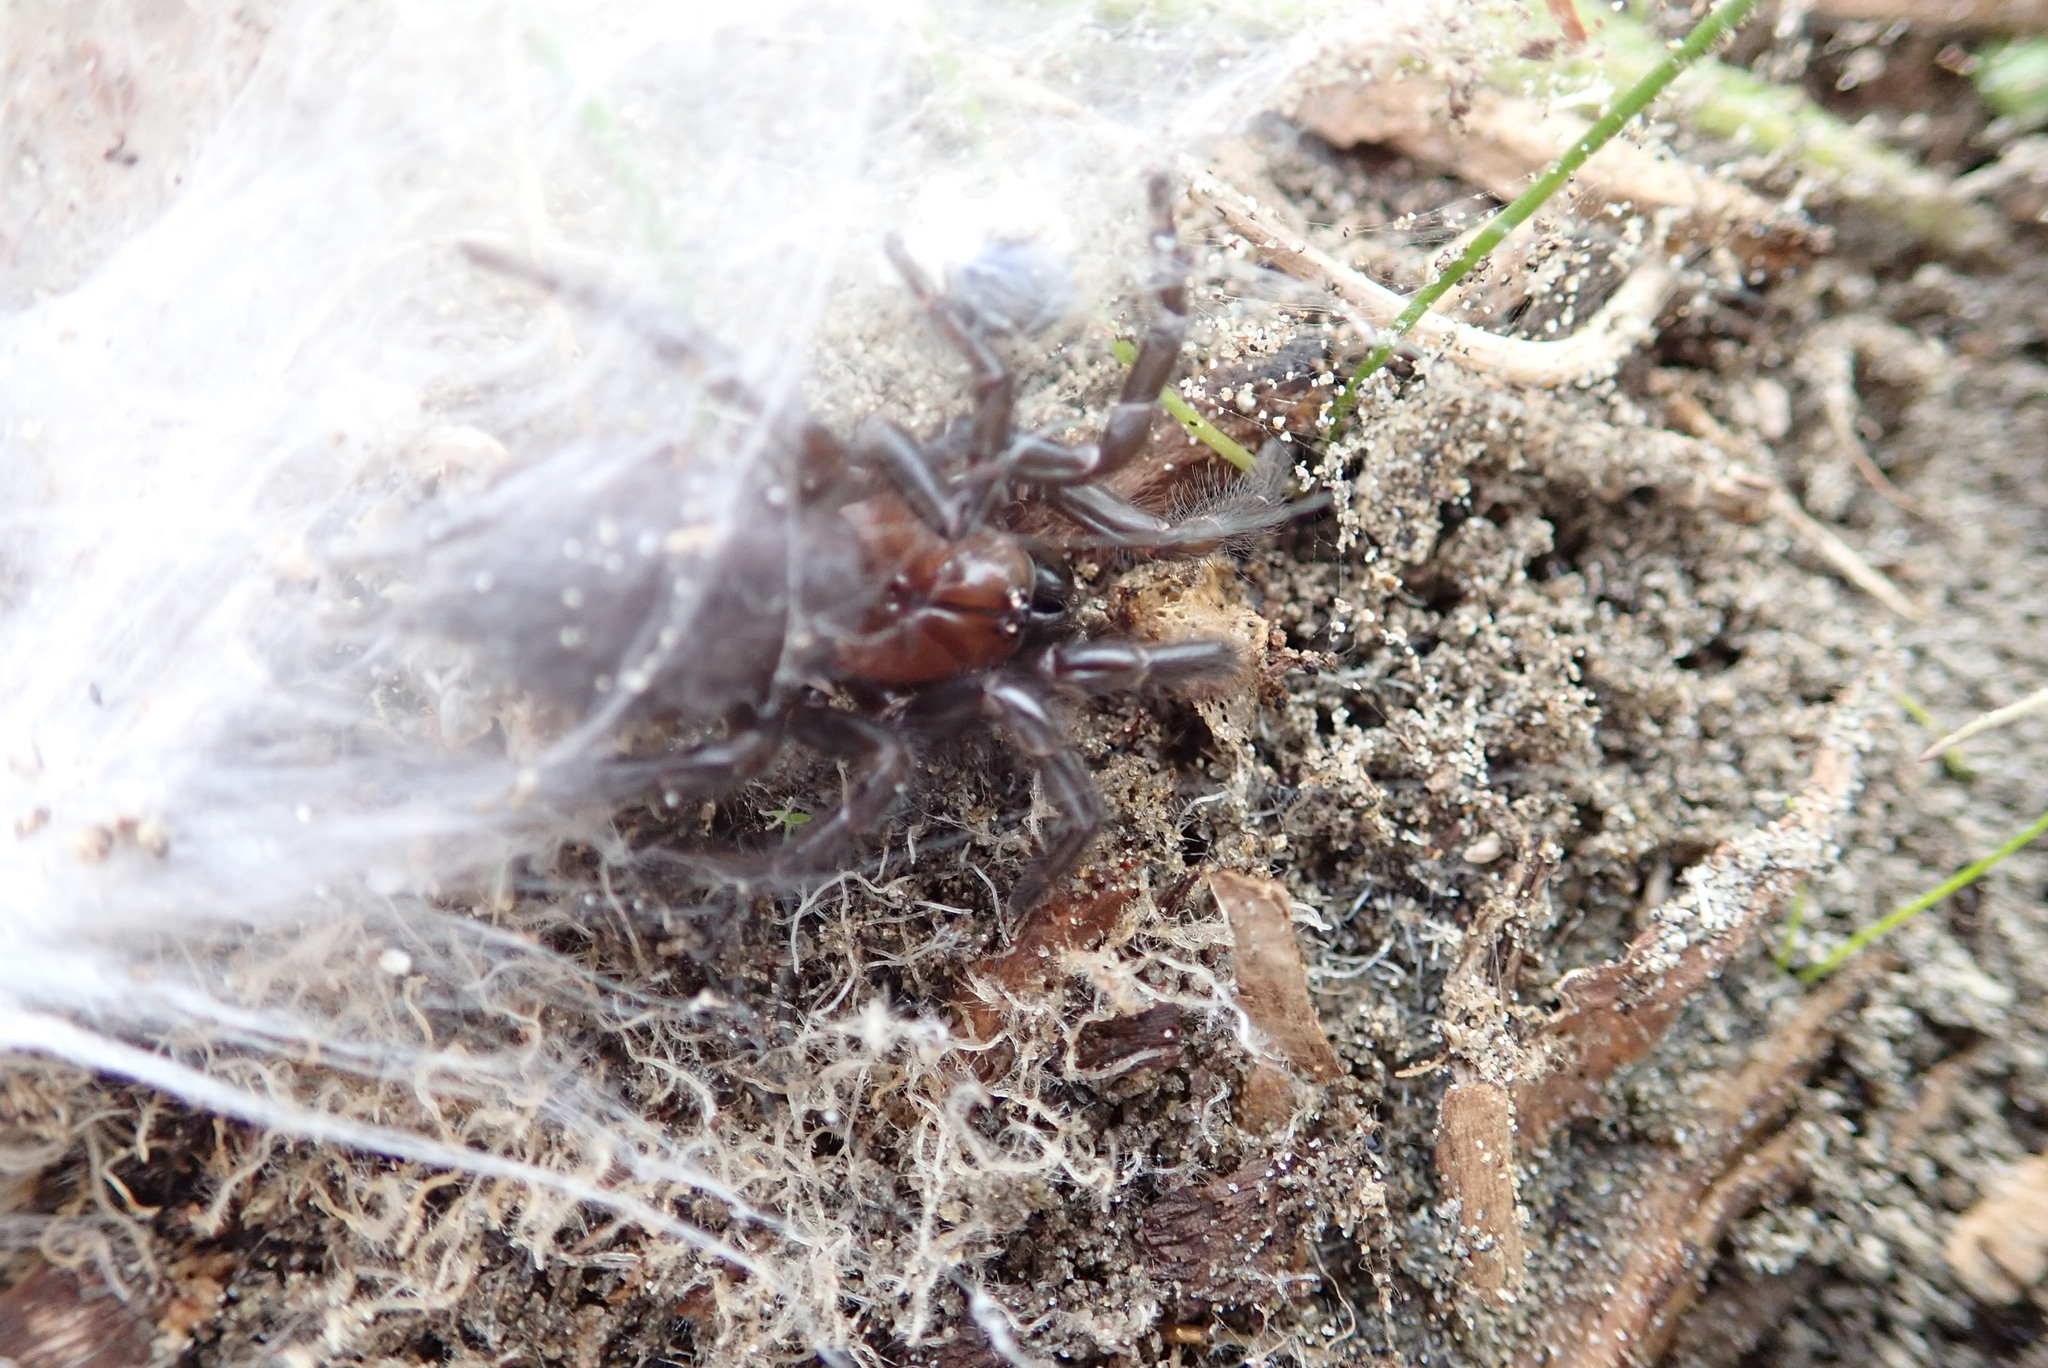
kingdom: Animalia
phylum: Arthropoda
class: Arachnida
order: Araneae
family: Porrhothelidae
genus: Porrhothele
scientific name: Porrhothele antipodiana
